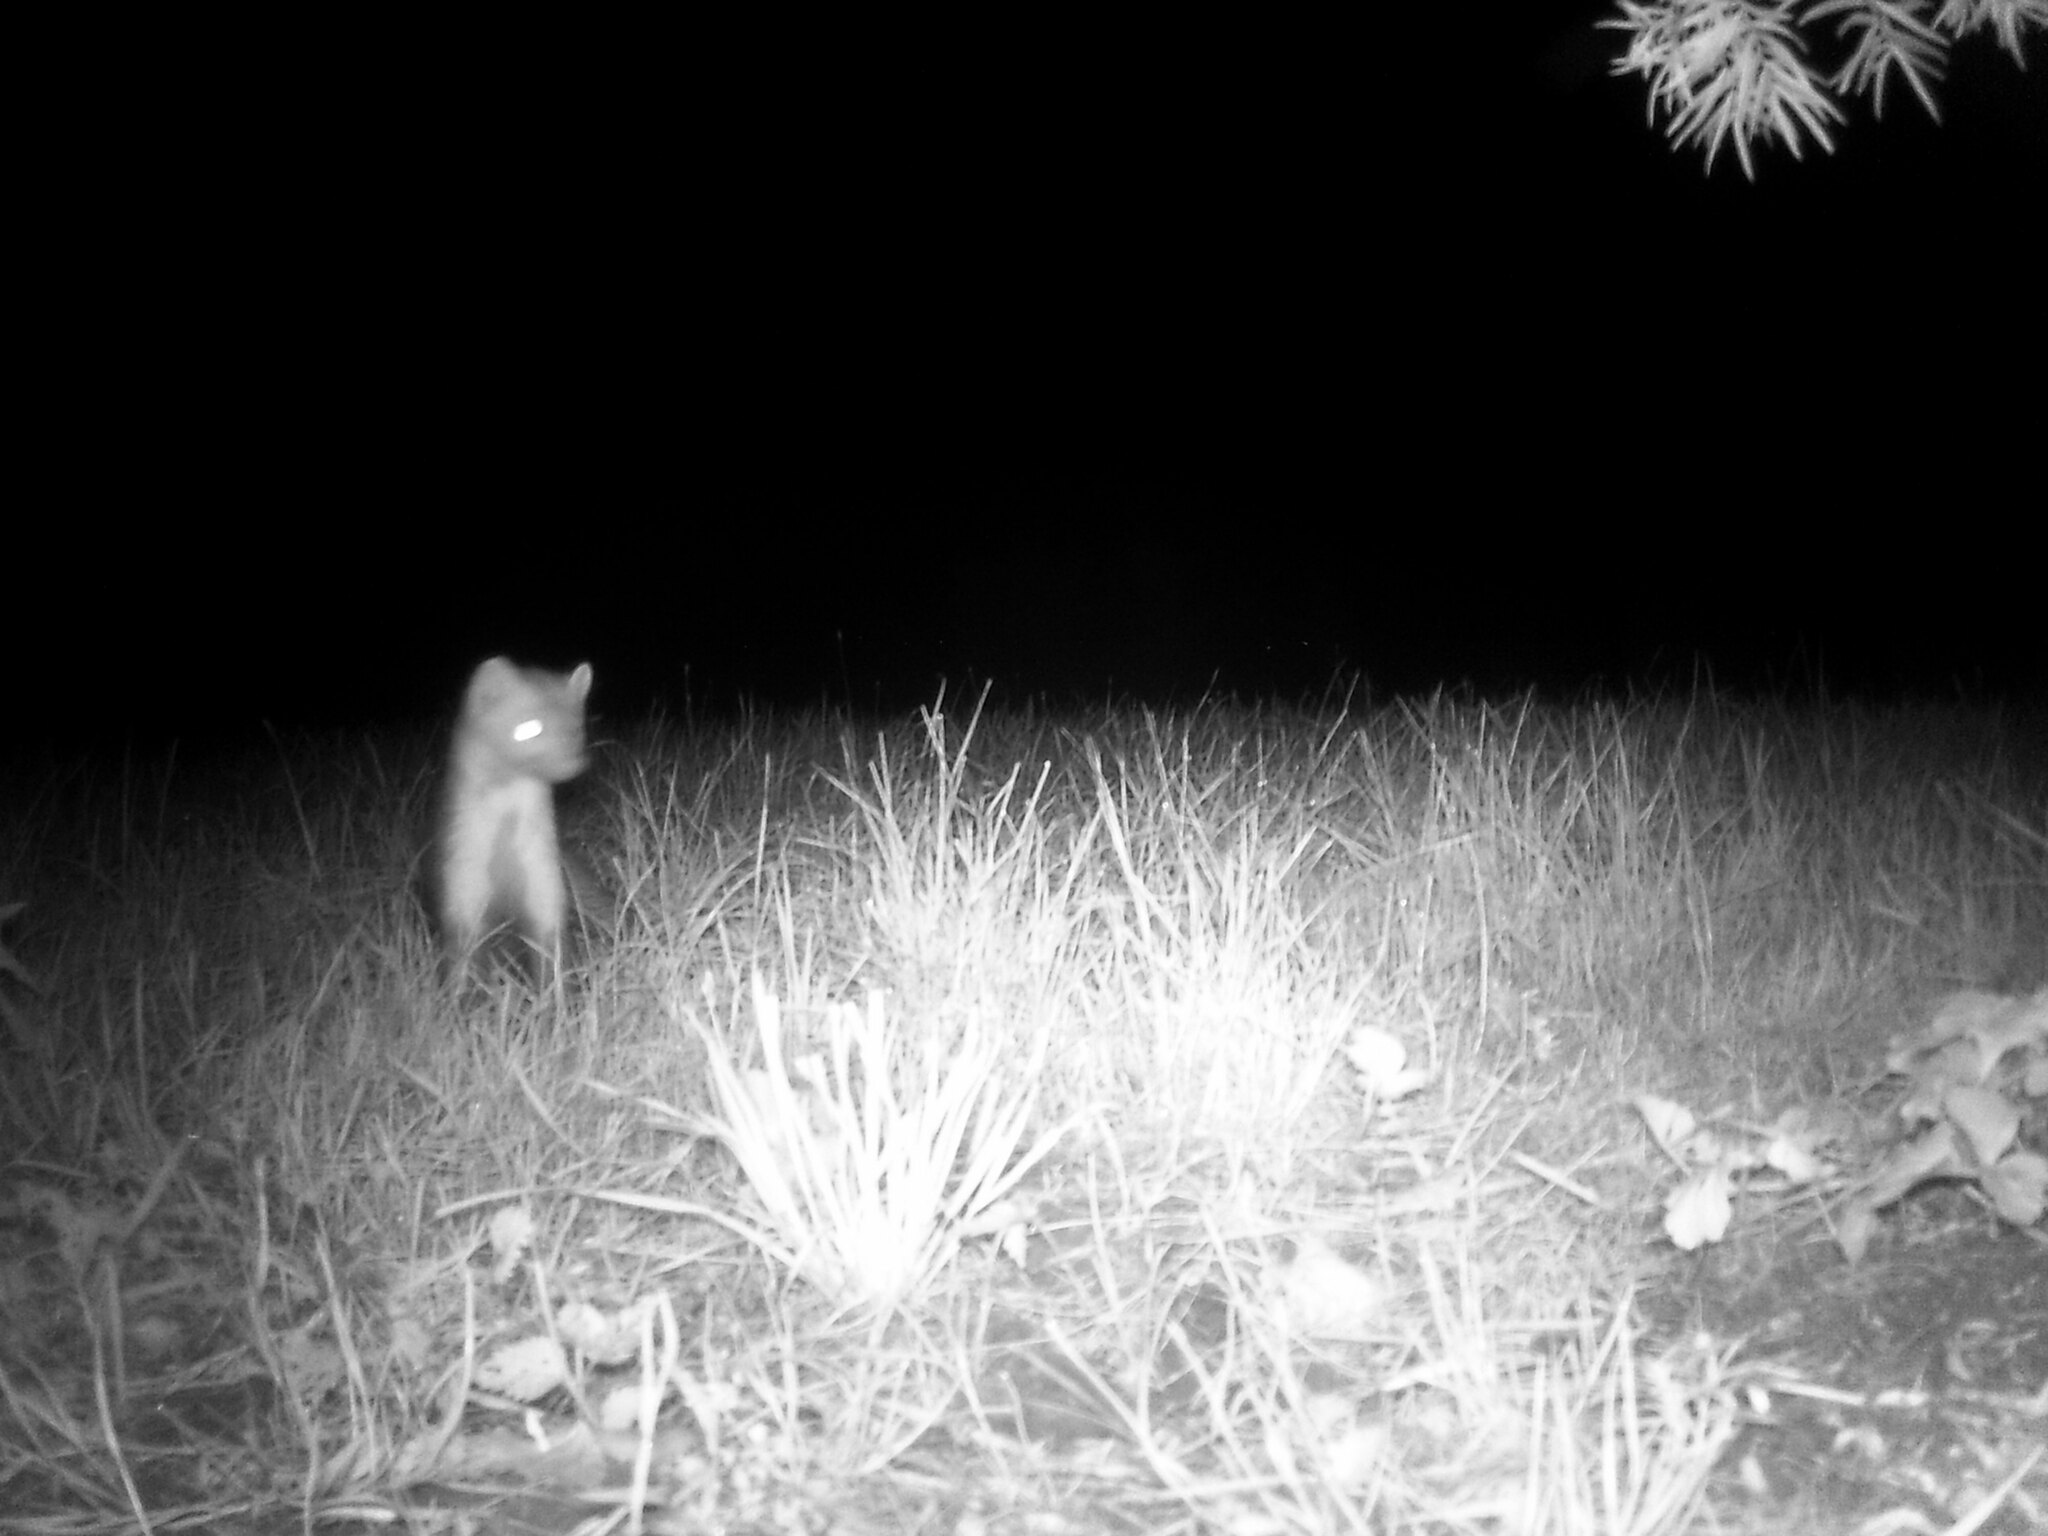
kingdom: Animalia
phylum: Chordata
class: Mammalia
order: Carnivora
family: Mustelidae
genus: Martes
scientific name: Martes foina
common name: Beech marten
